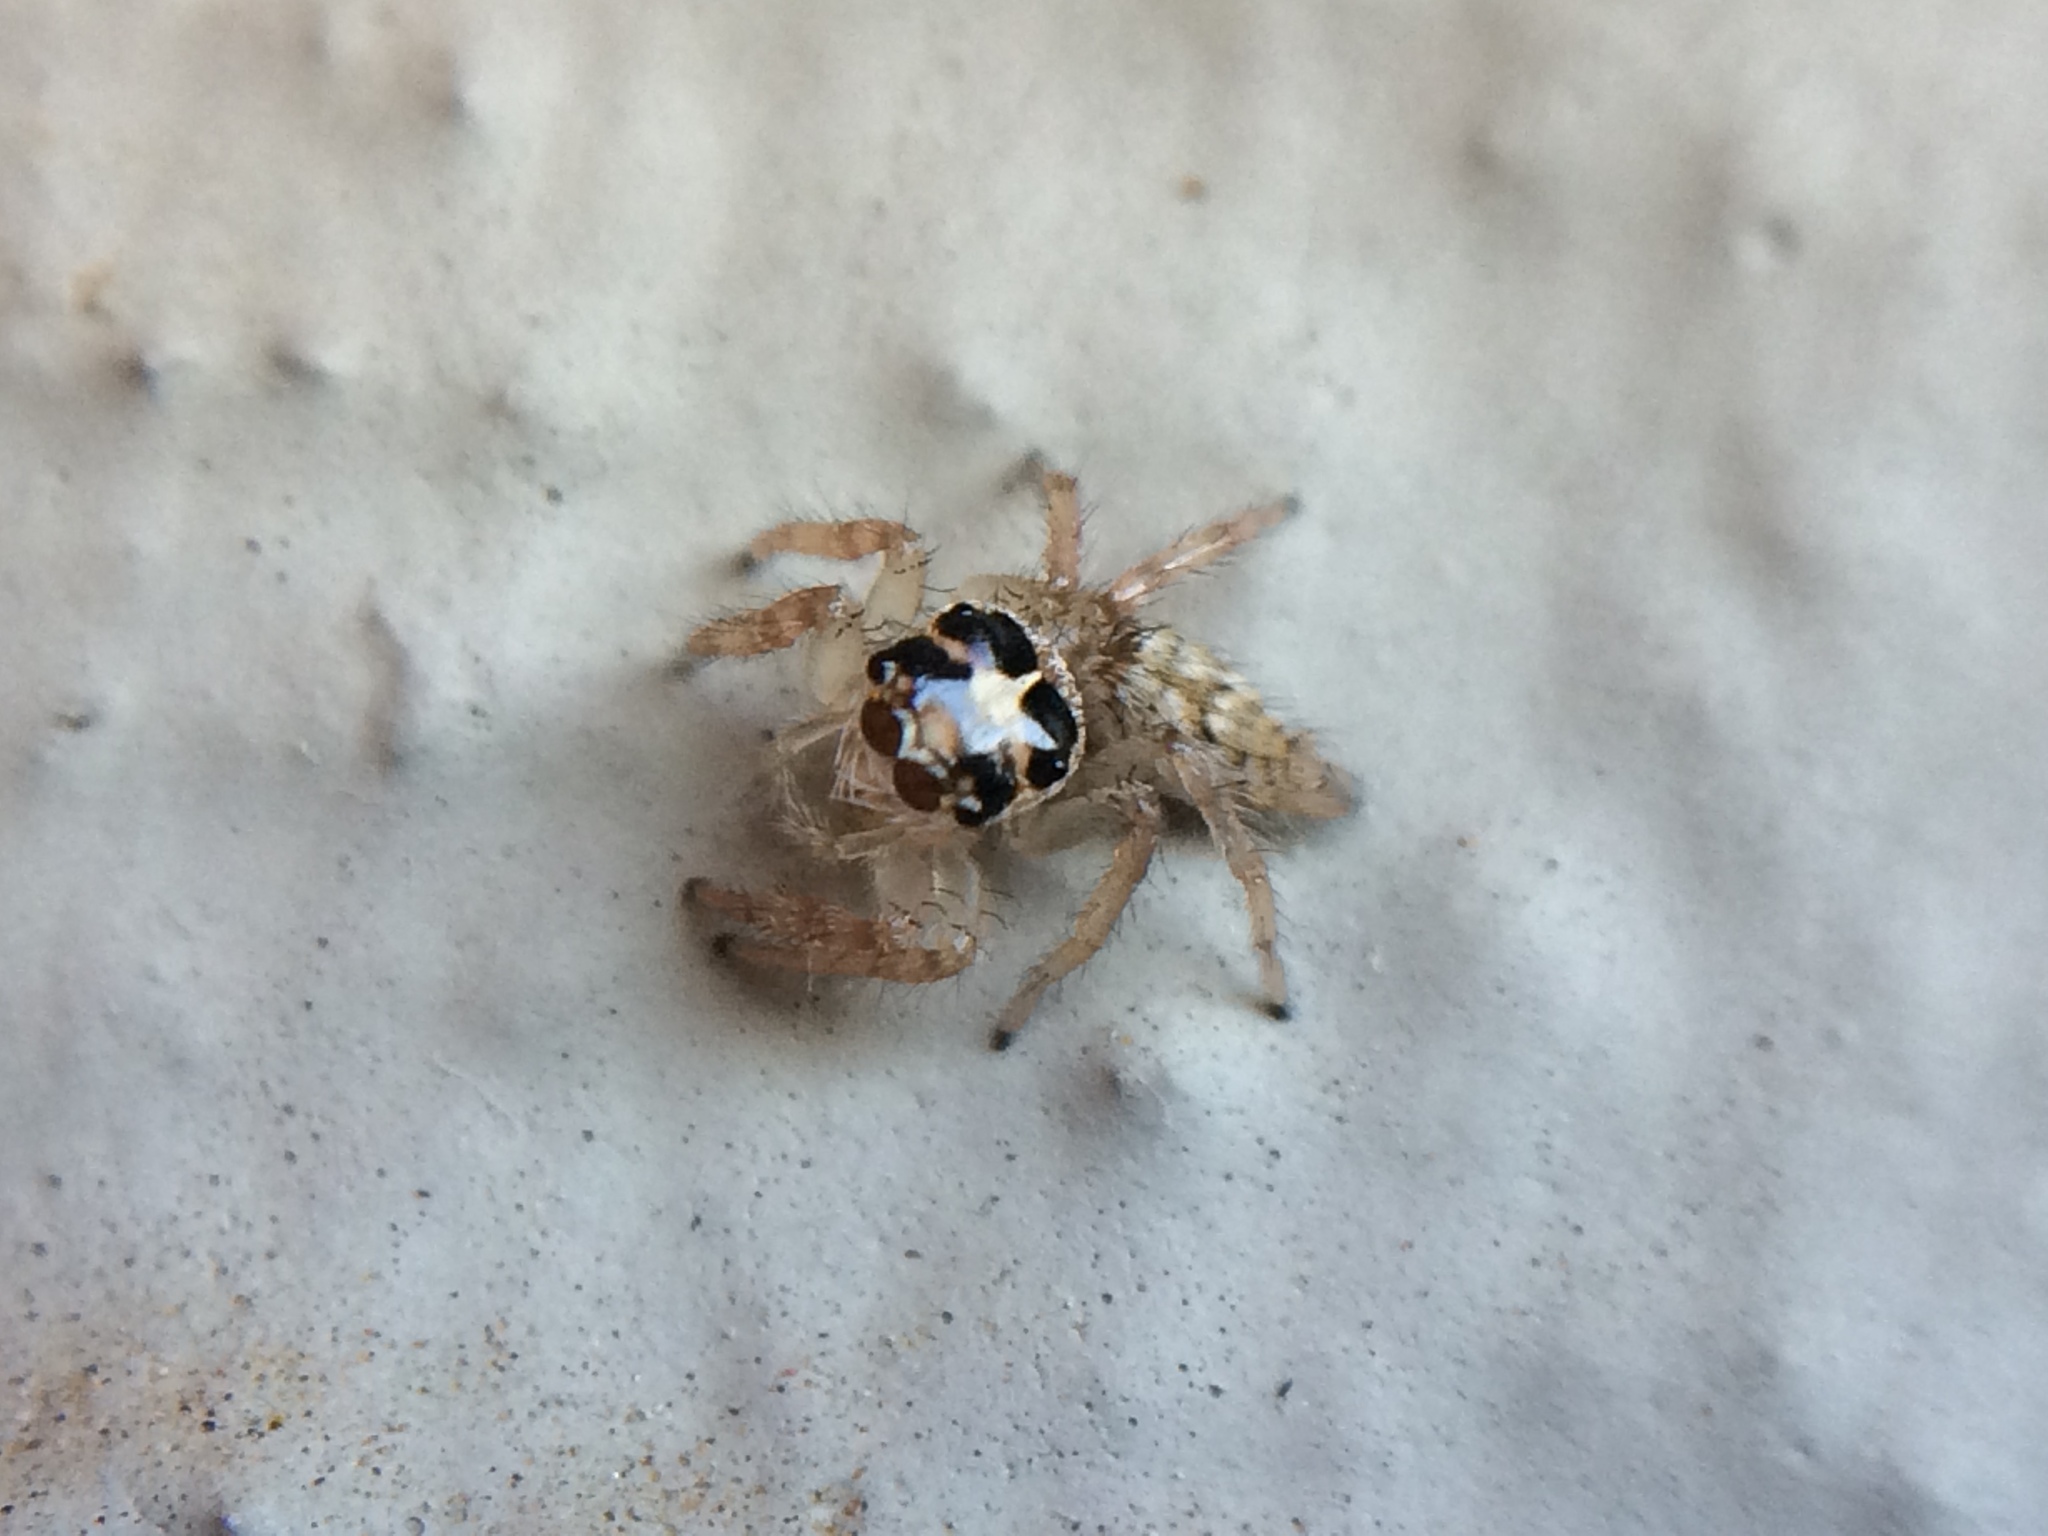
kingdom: Animalia
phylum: Arthropoda
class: Arachnida
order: Araneae
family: Salticidae
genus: Colonus
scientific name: Colonus hesperus
